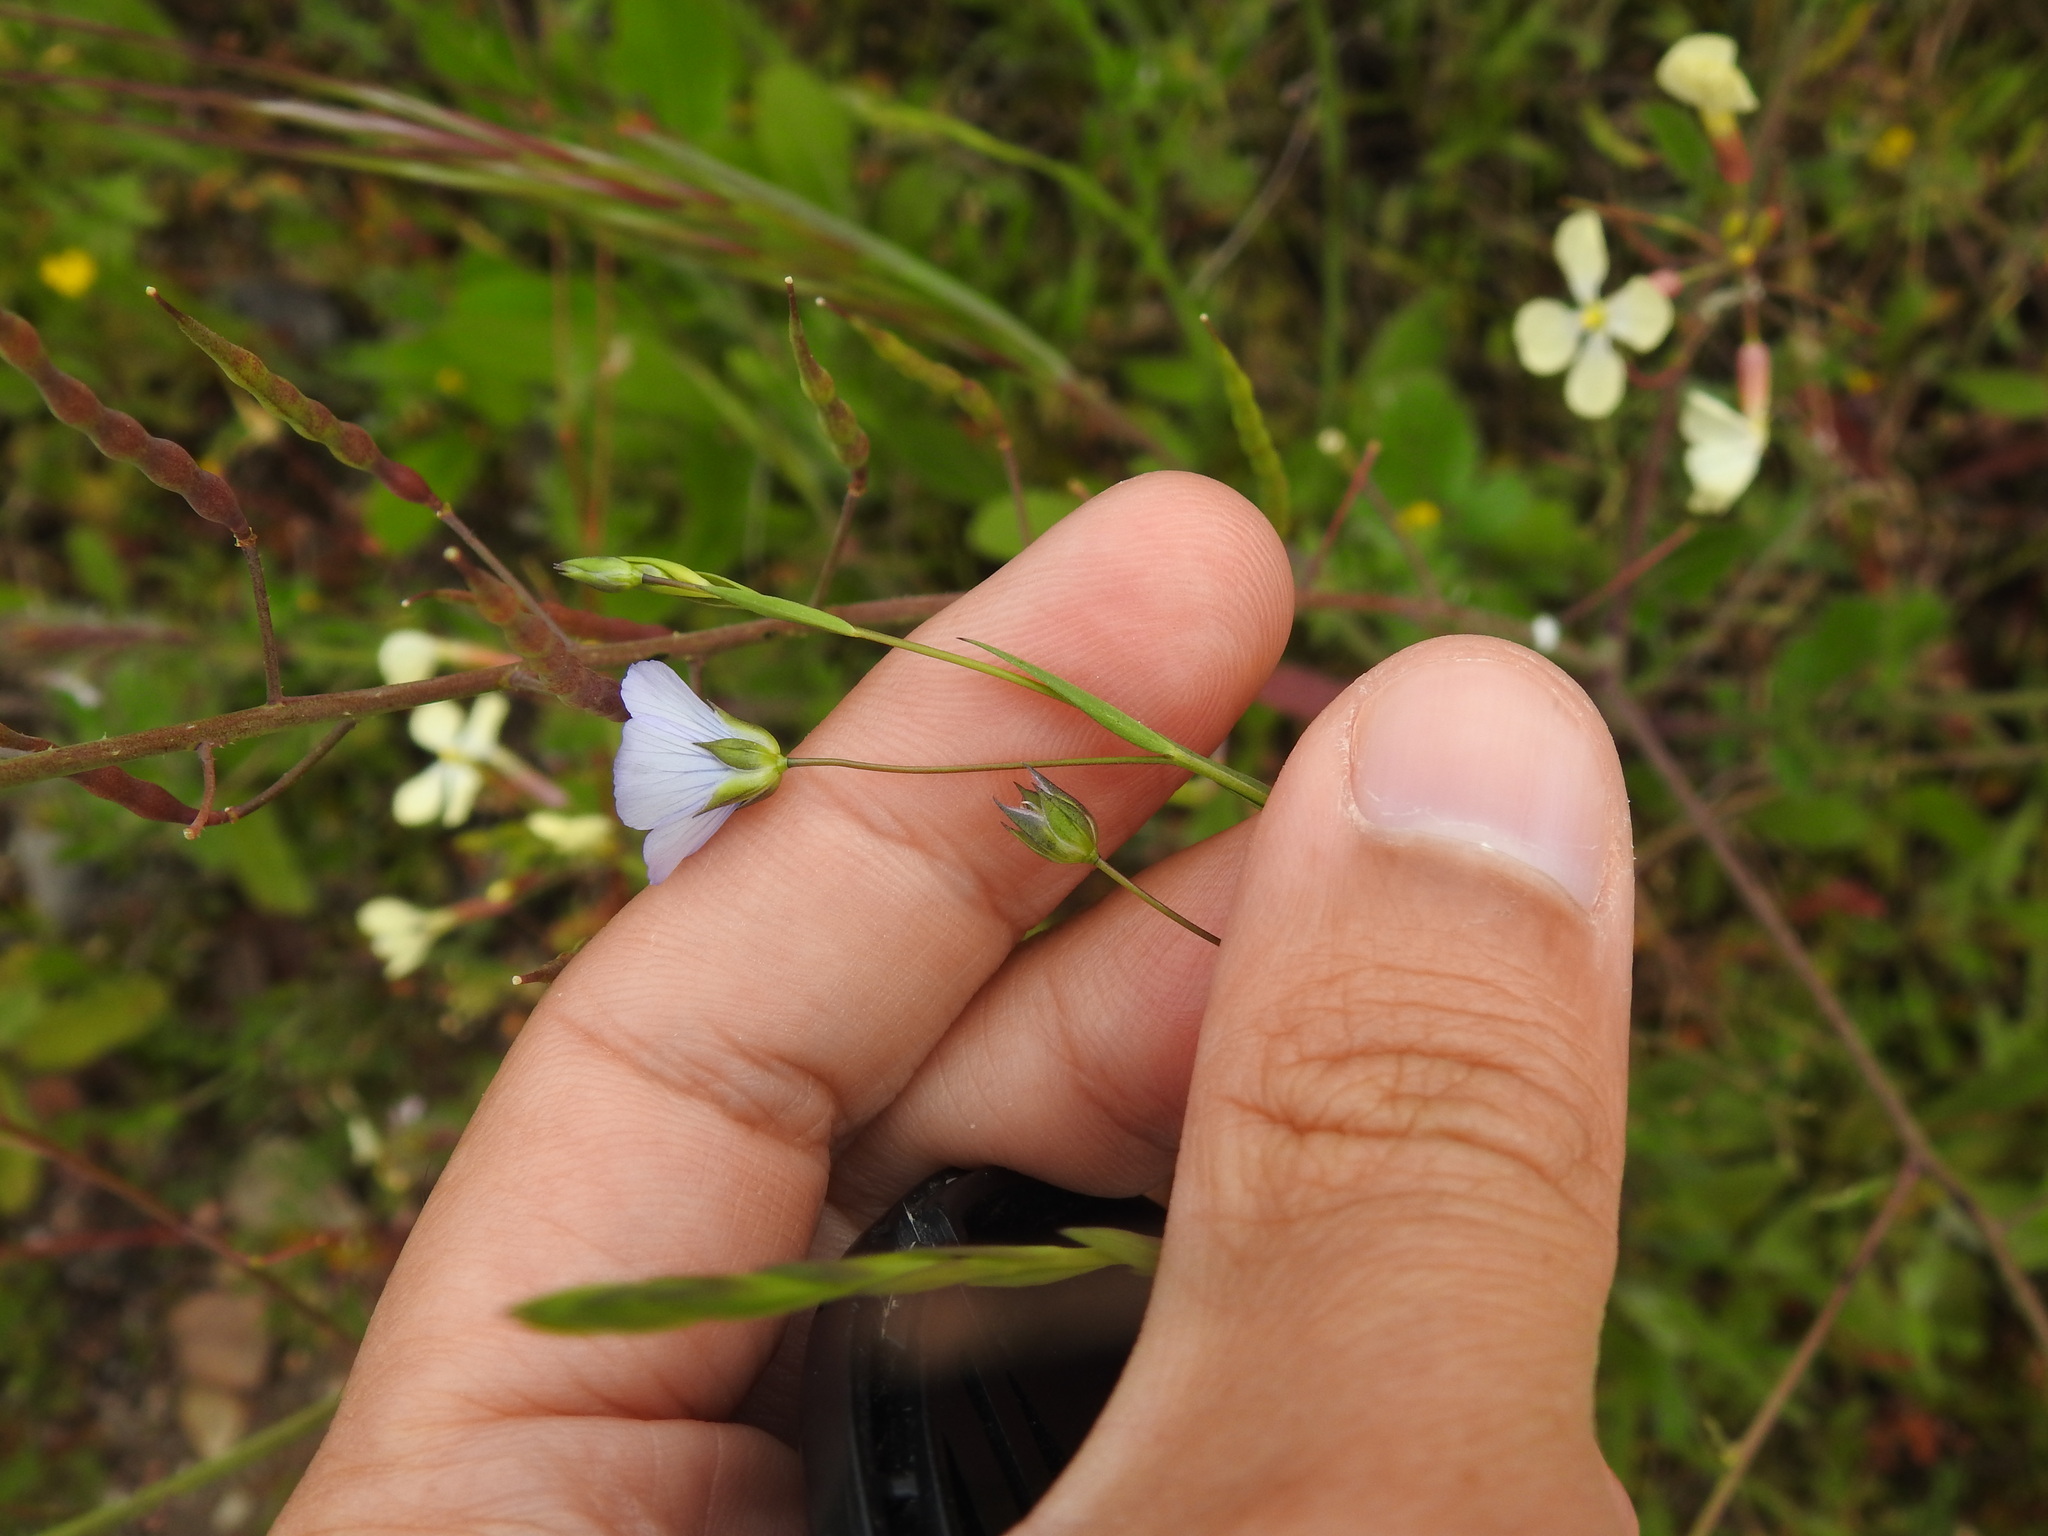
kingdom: Plantae
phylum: Tracheophyta
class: Magnoliopsida
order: Malpighiales
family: Linaceae
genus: Linum
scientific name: Linum bienne
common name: Pale flax
